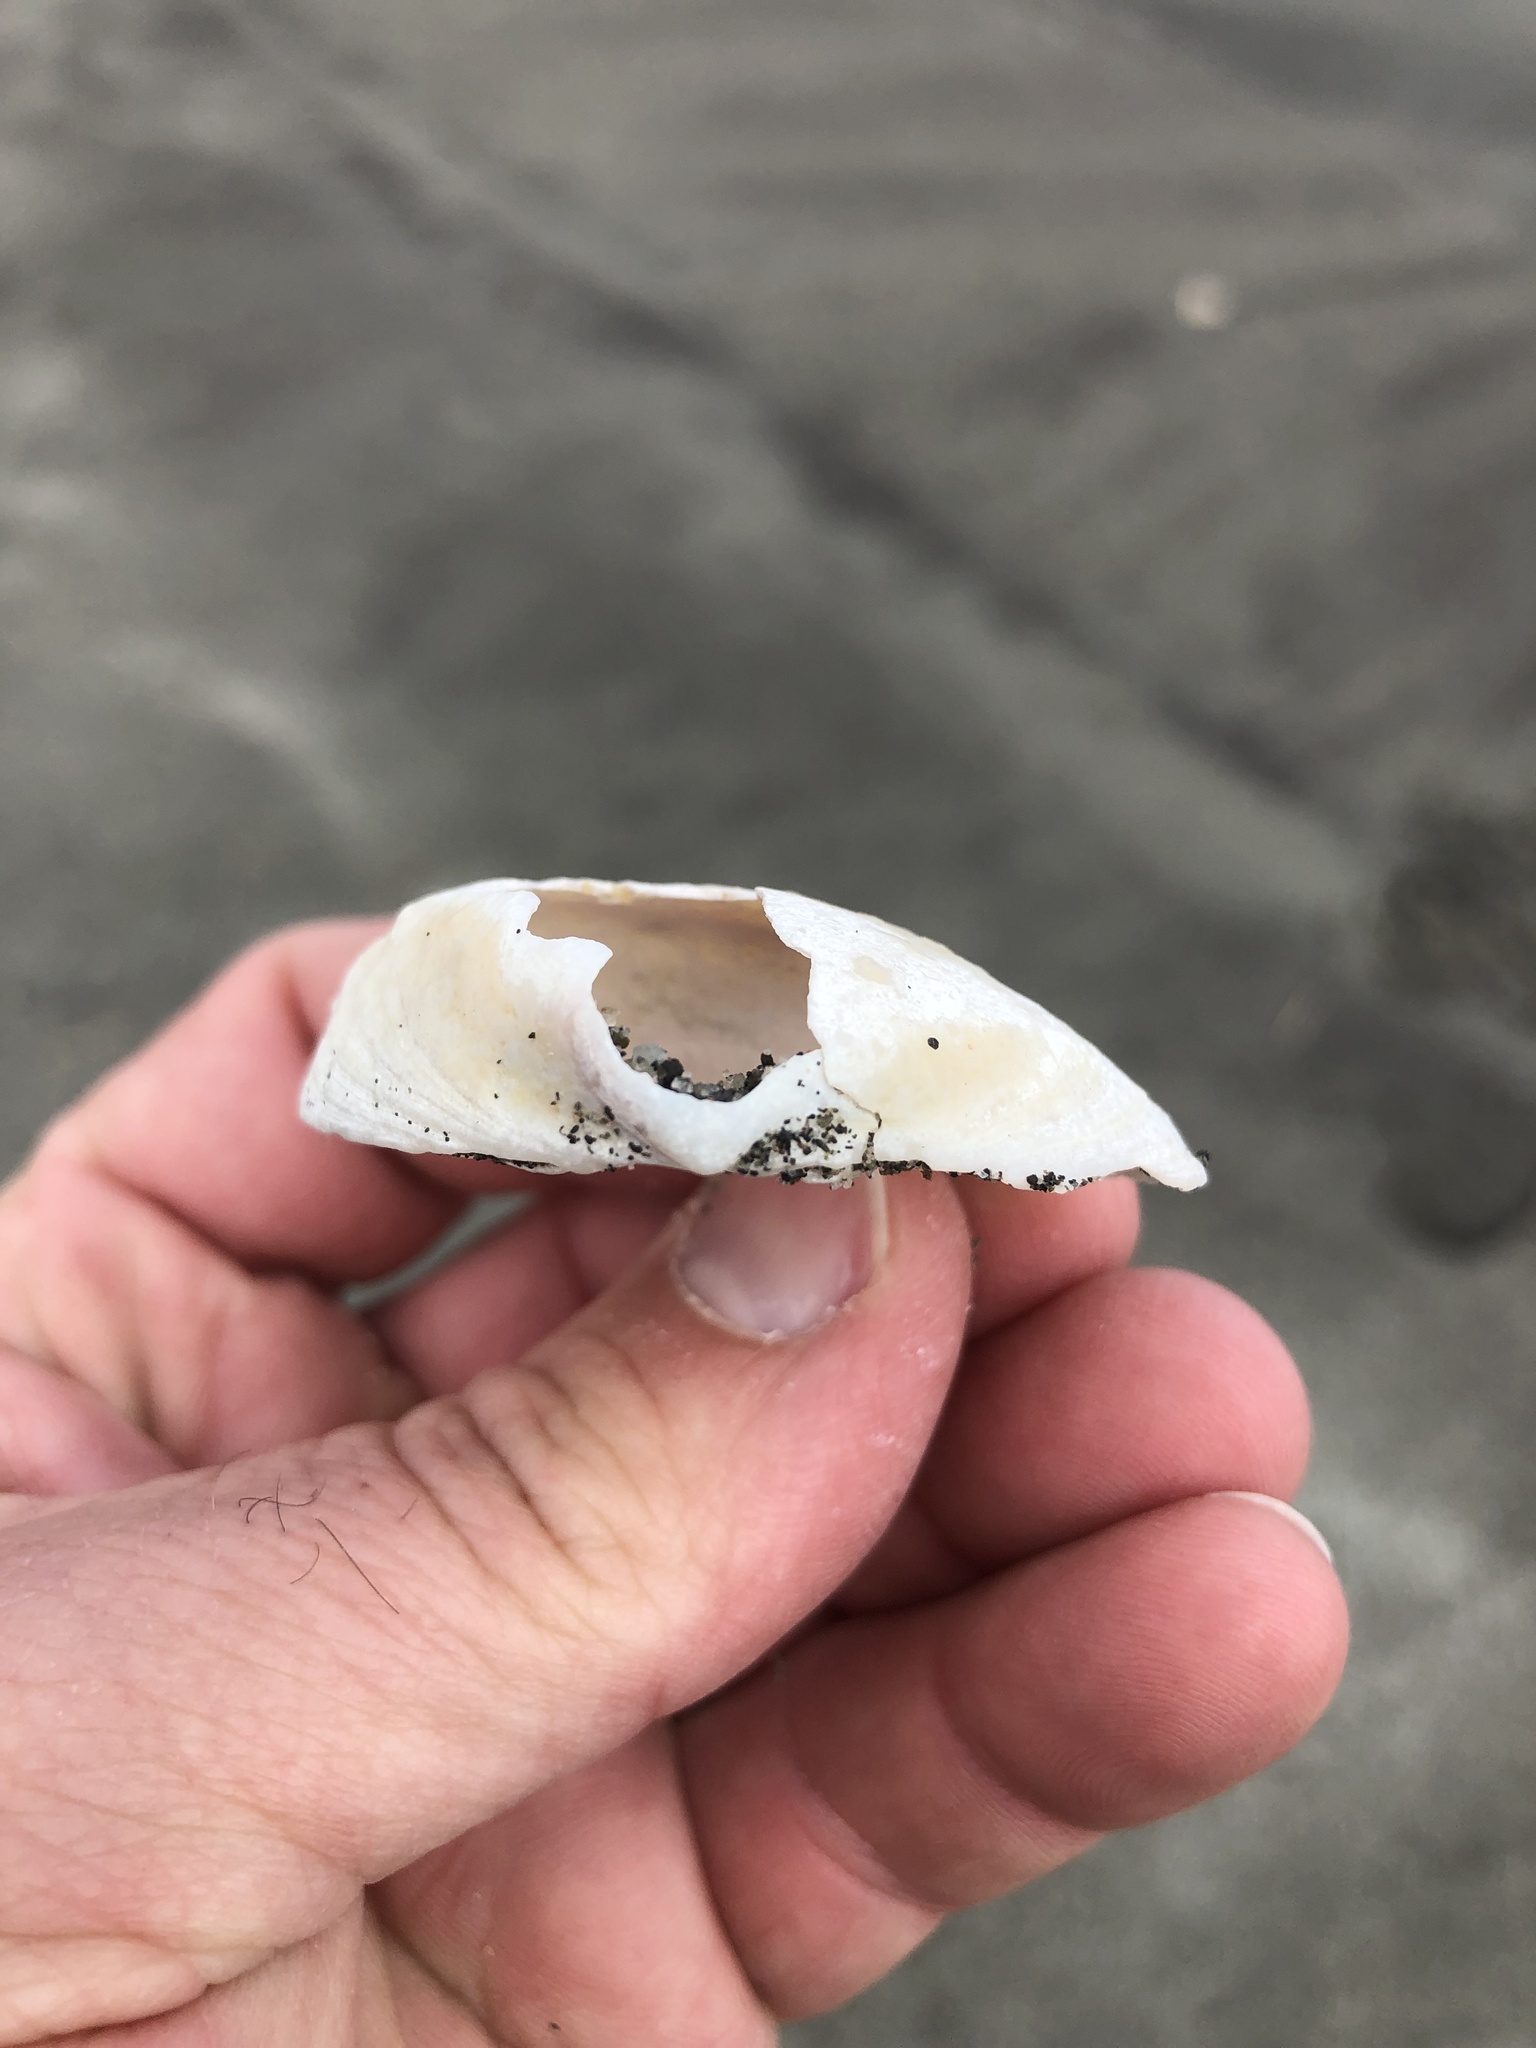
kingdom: Animalia
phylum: Mollusca
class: Bivalvia
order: Venerida
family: Mactridae
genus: Crassula
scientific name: Crassula aequilatera
